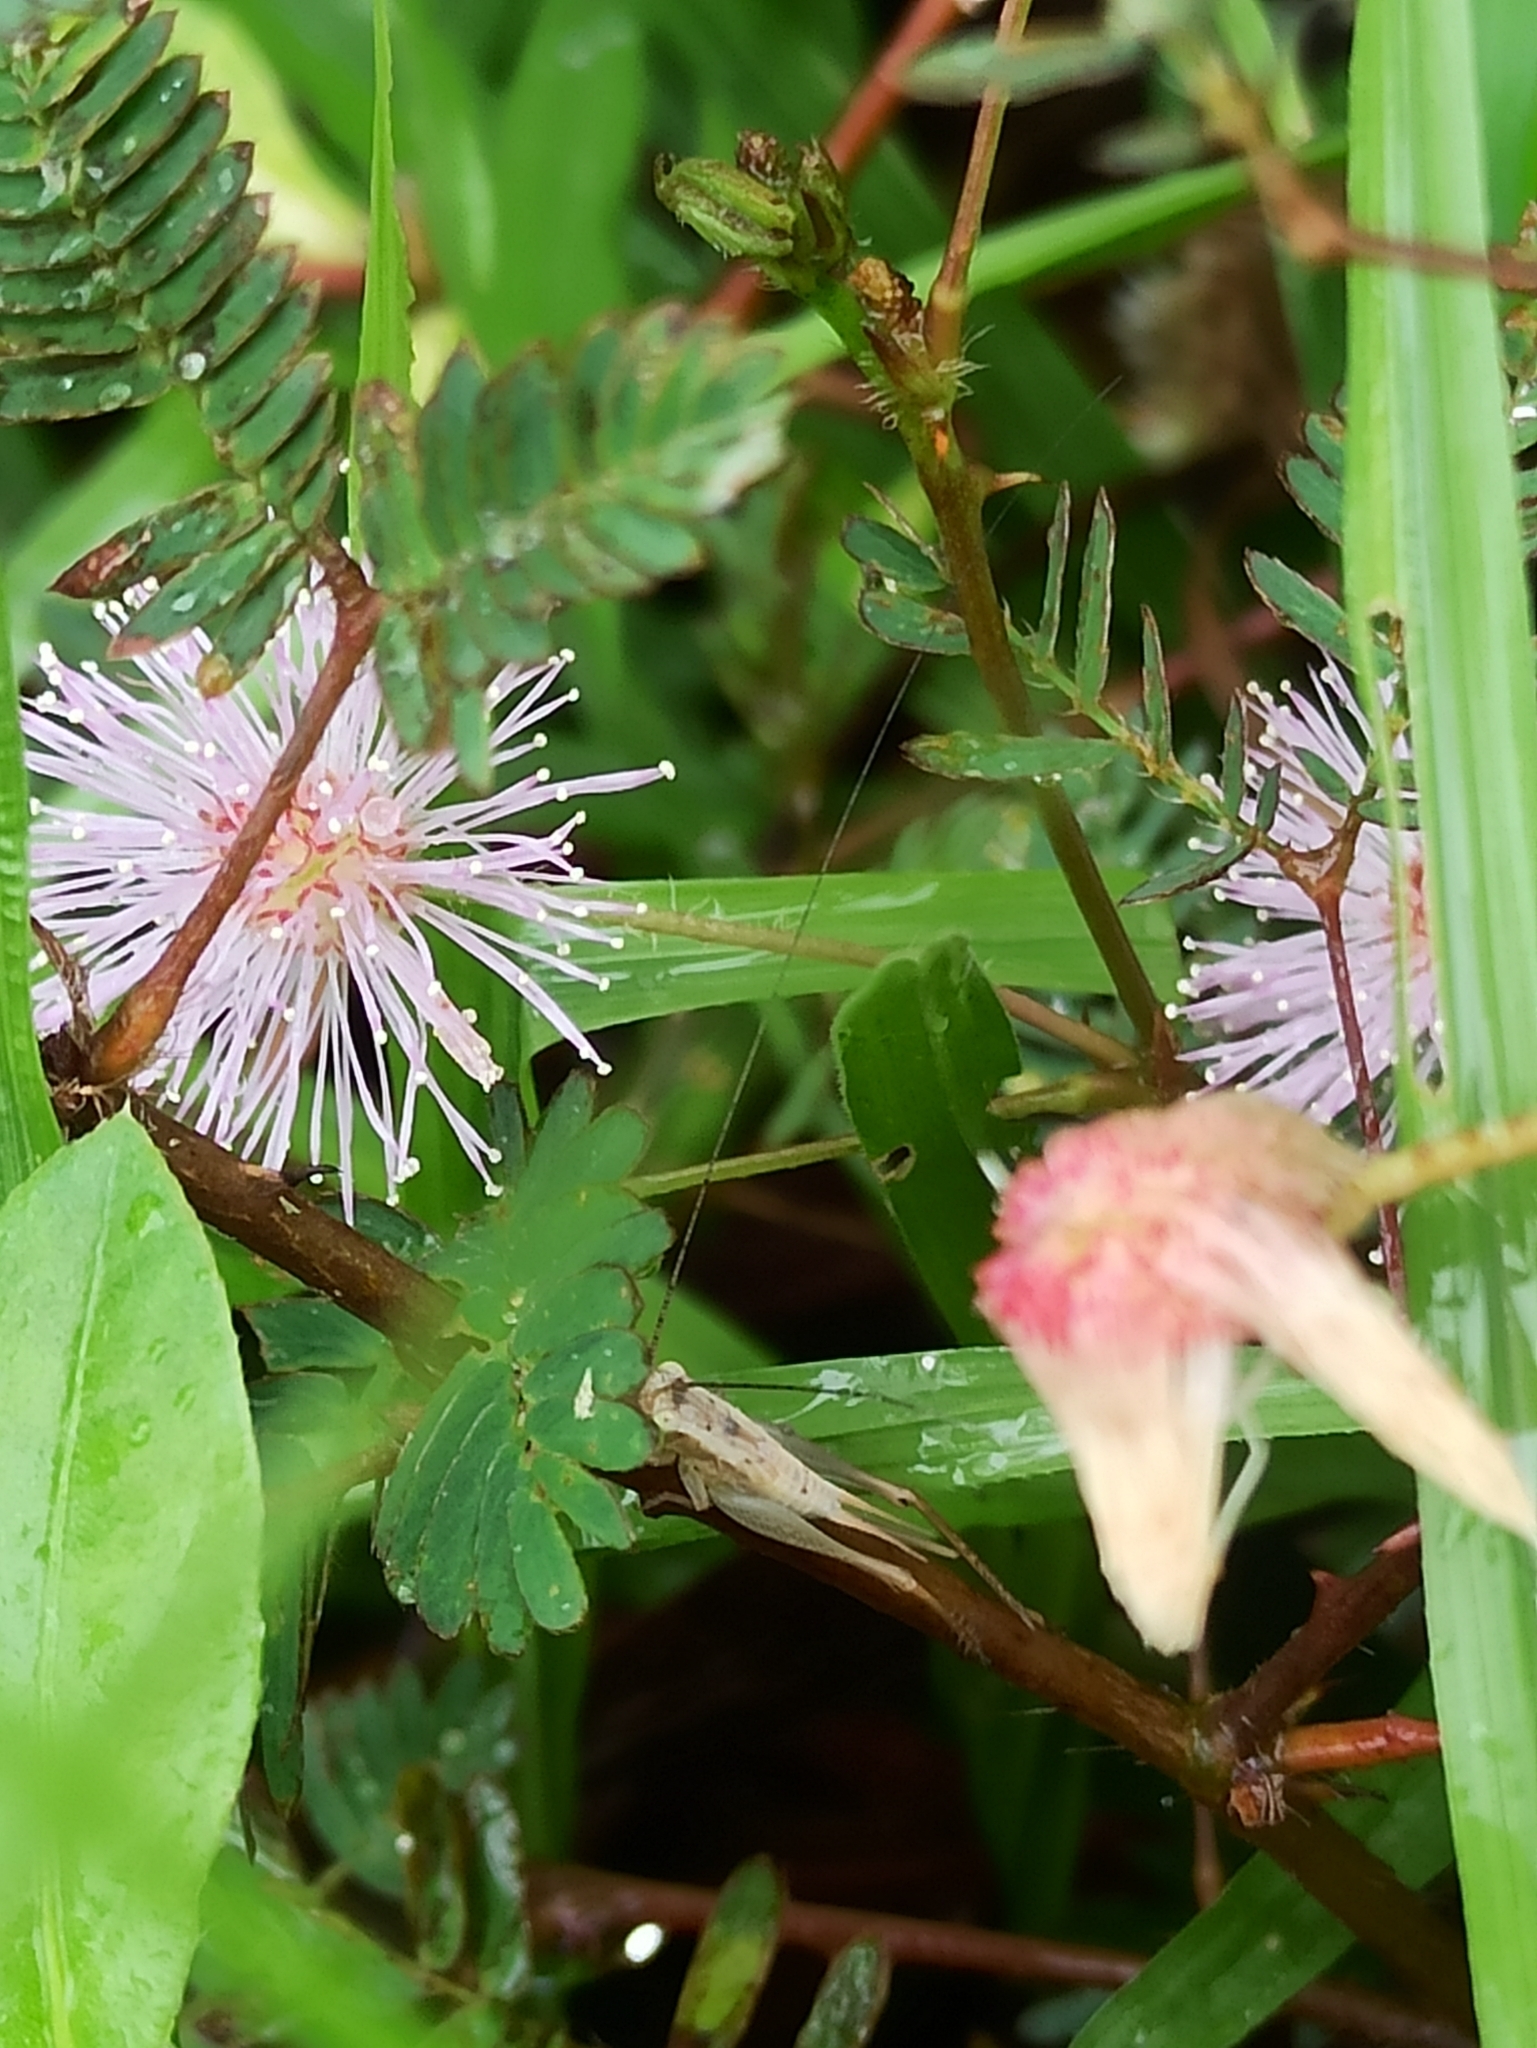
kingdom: Plantae
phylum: Tracheophyta
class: Magnoliopsida
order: Fabales
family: Fabaceae
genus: Mimosa
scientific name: Mimosa pudica
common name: Sensitive plant
